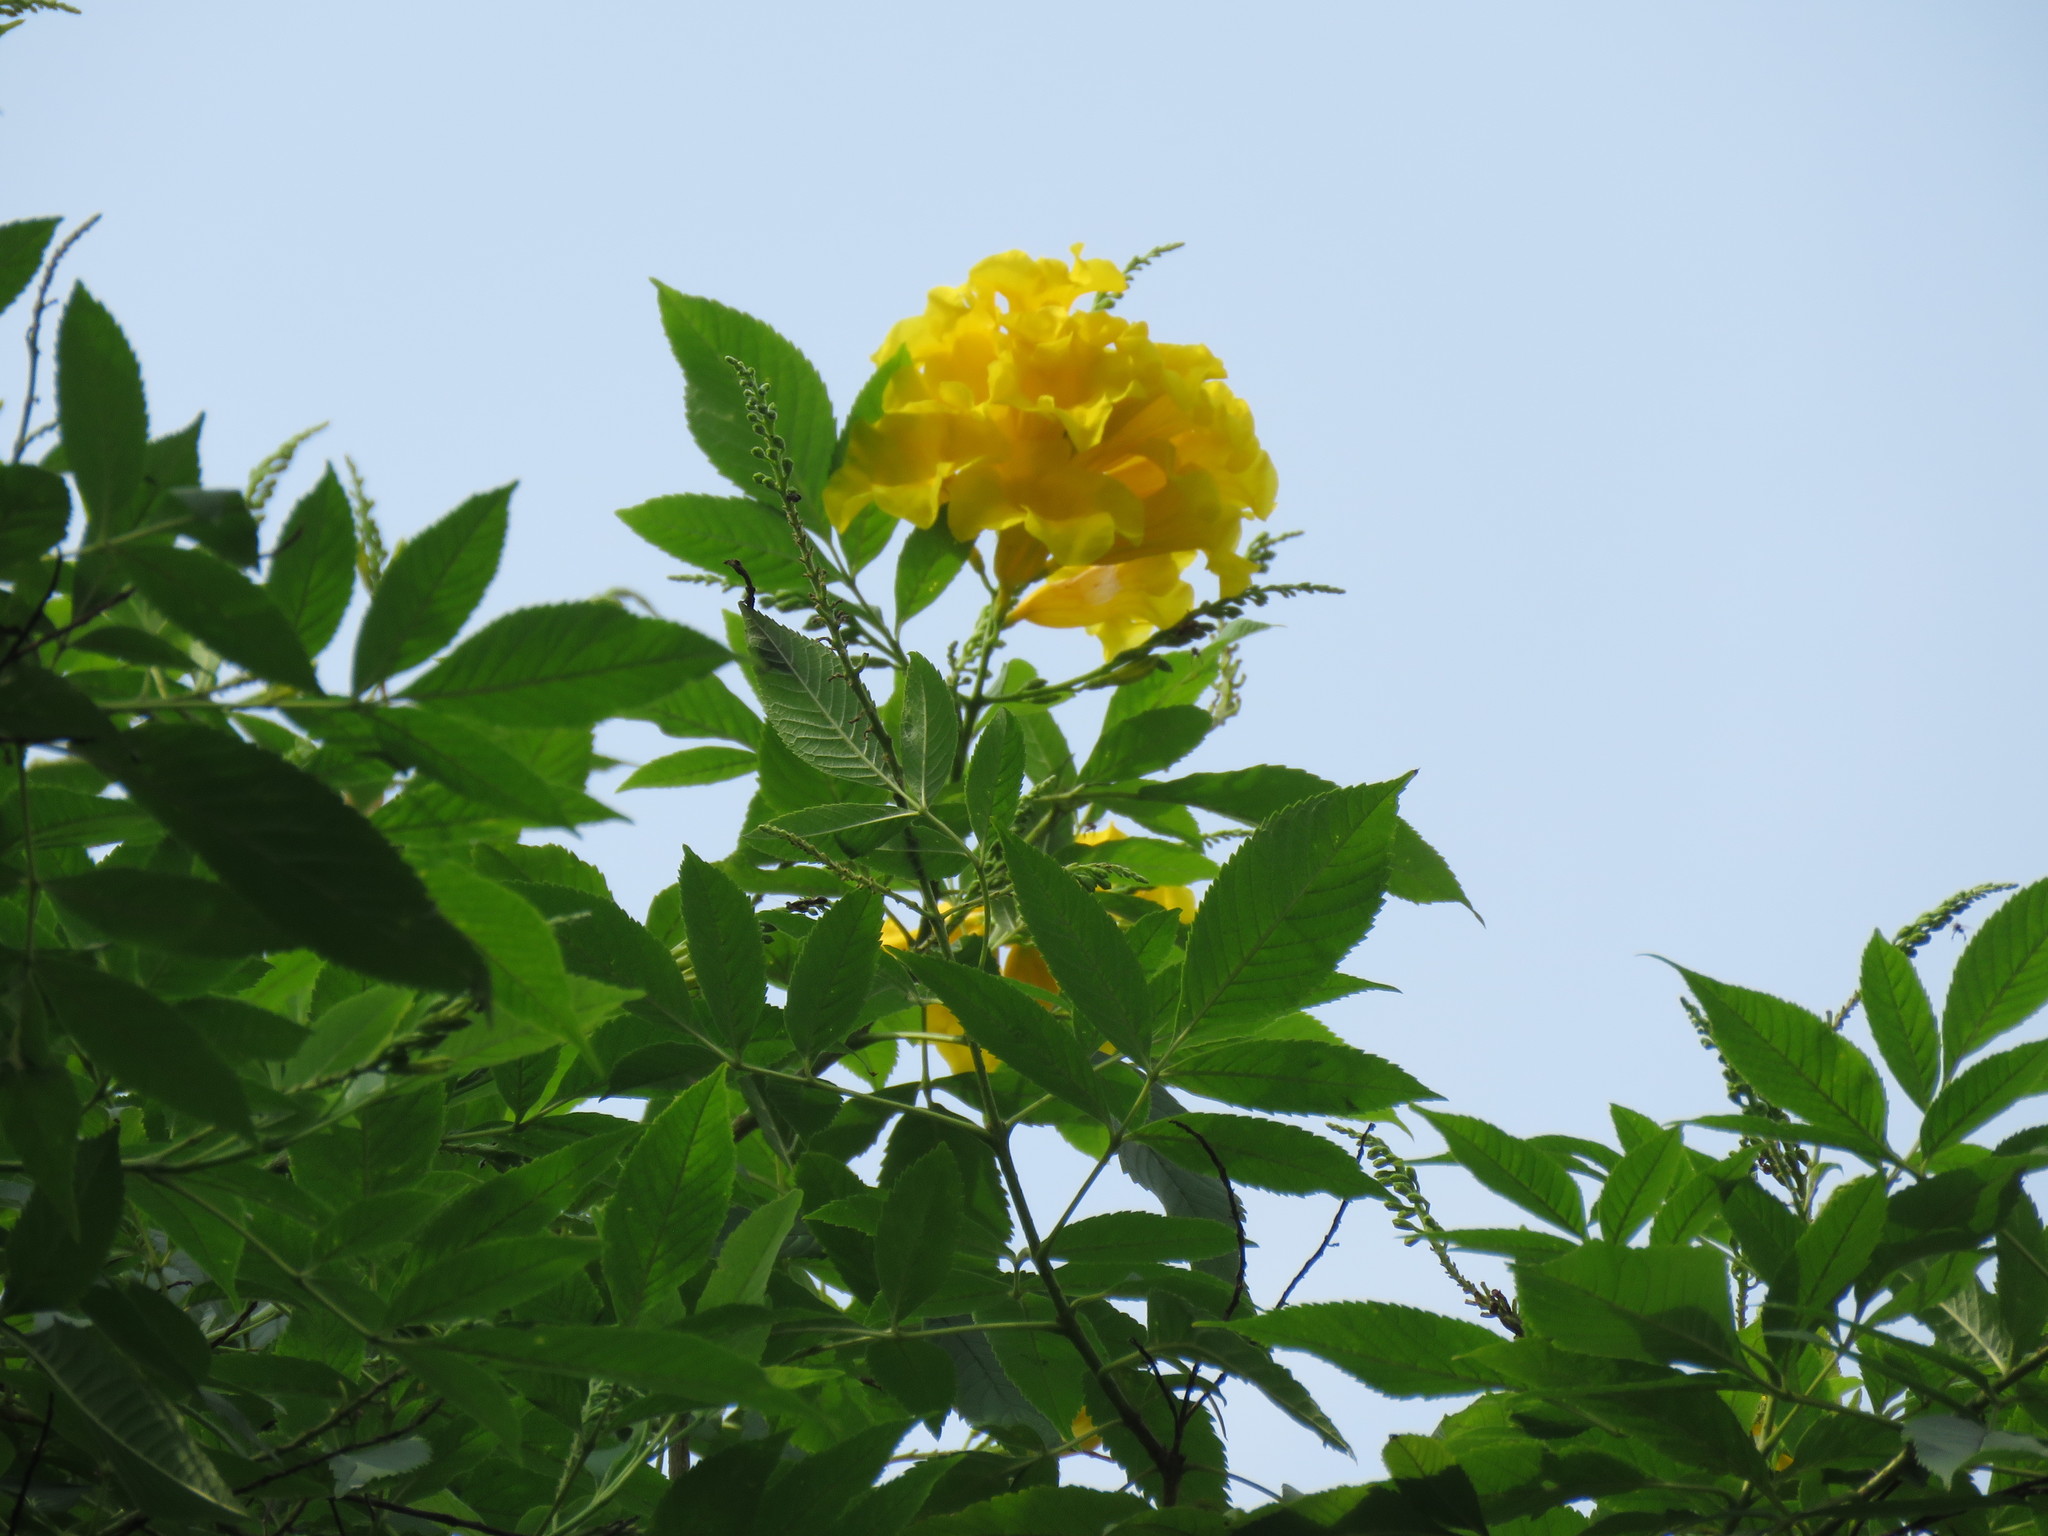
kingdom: Plantae
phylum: Tracheophyta
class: Magnoliopsida
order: Lamiales
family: Bignoniaceae
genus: Tecoma
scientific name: Tecoma stans
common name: Yellow trumpetbush
